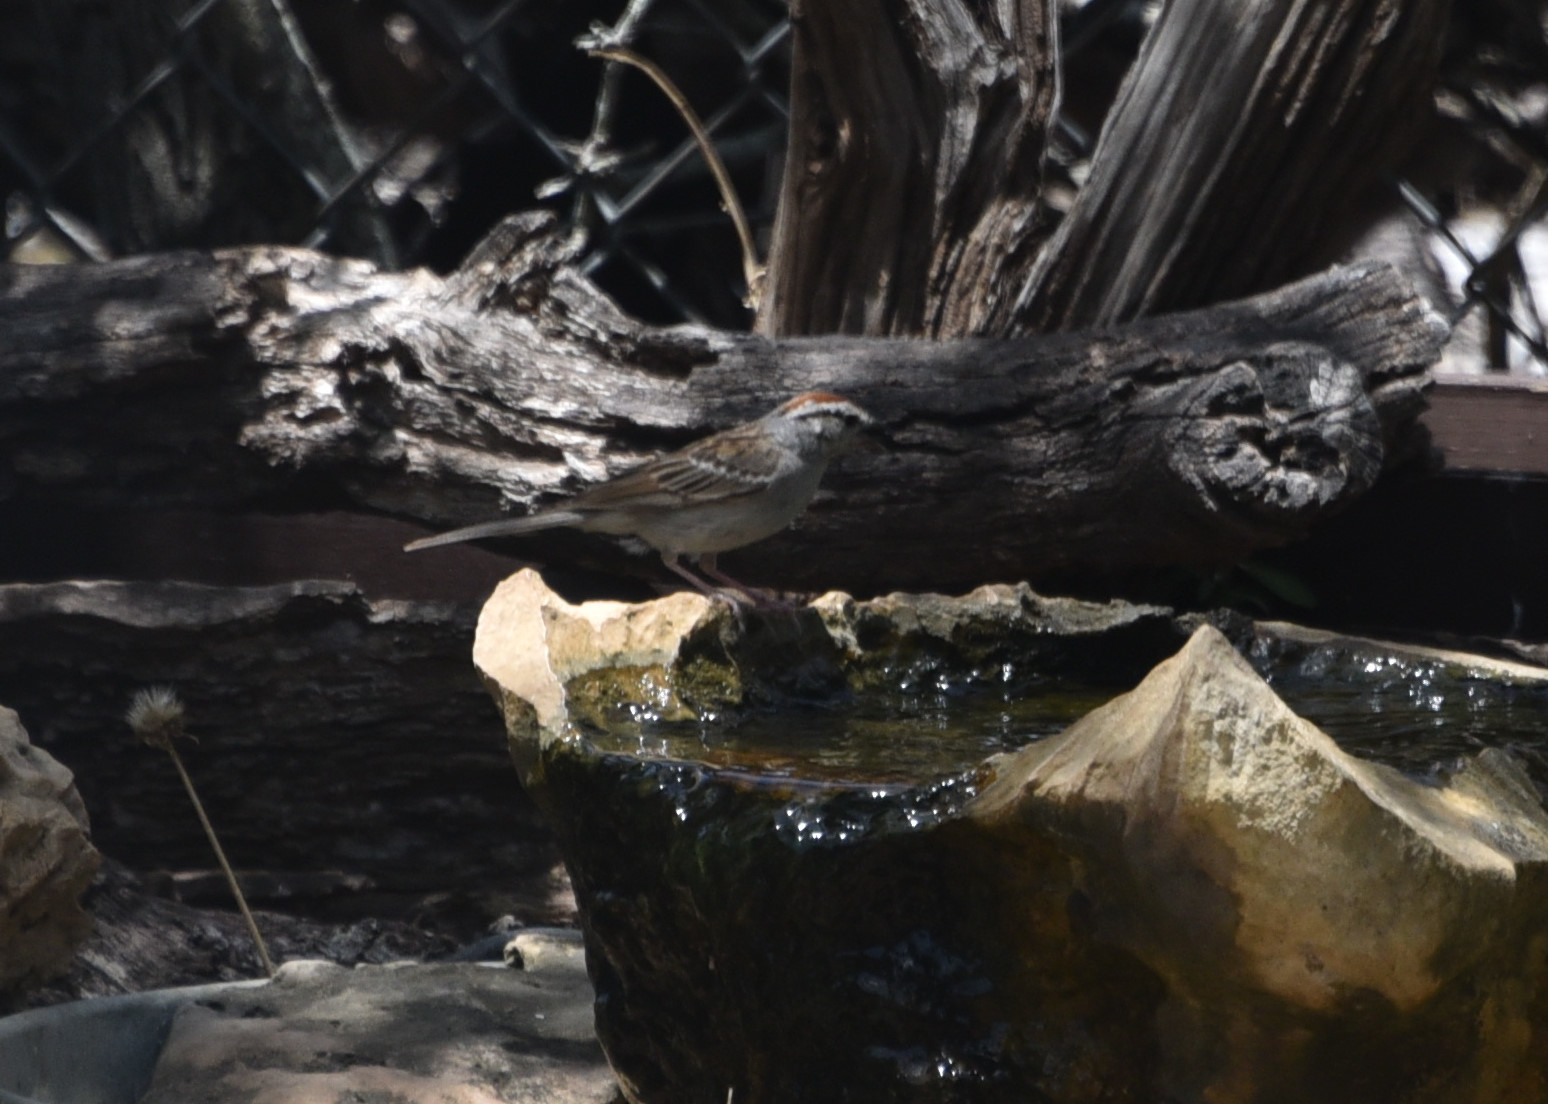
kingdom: Animalia
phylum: Chordata
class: Aves
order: Passeriformes
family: Passerellidae
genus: Spizella
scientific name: Spizella passerina
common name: Chipping sparrow
